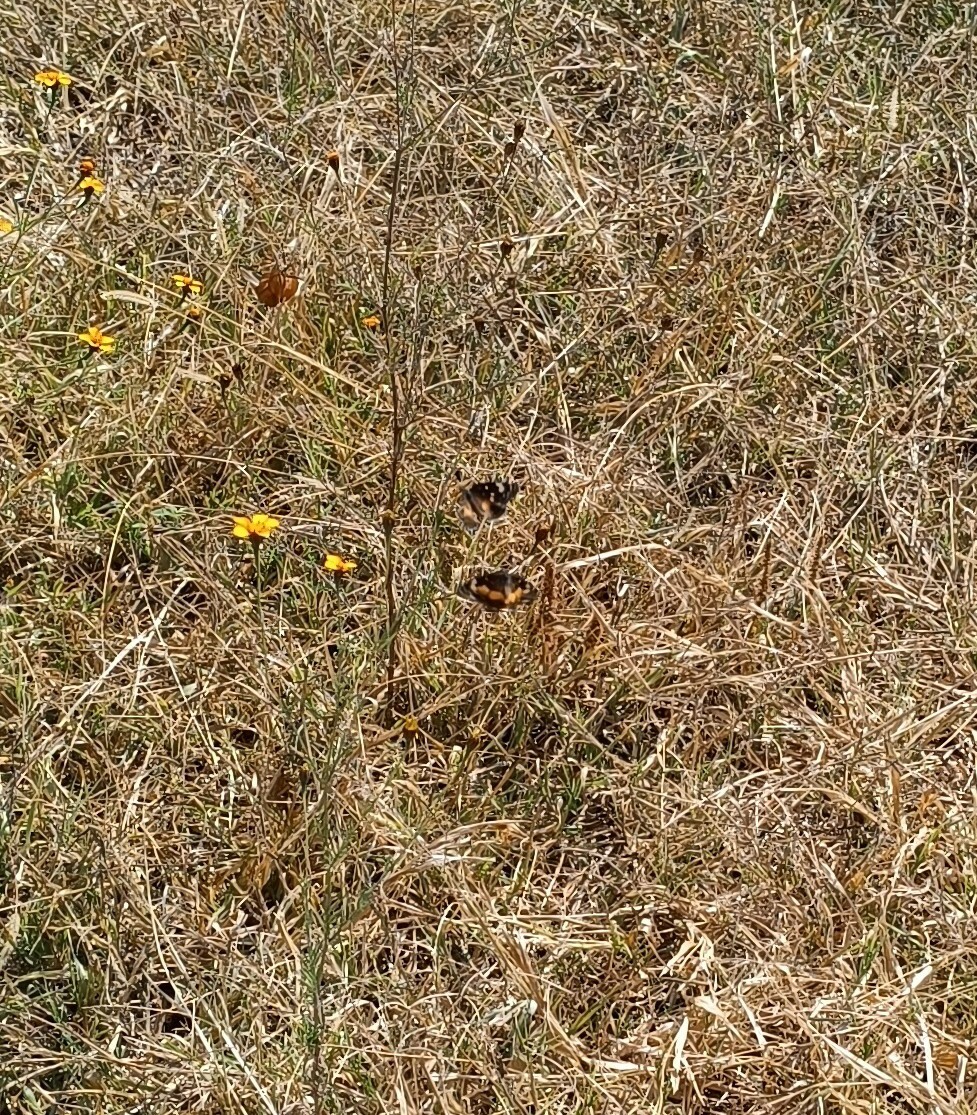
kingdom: Animalia
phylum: Arthropoda
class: Insecta
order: Lepidoptera
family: Nymphalidae
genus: Chlosyne
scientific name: Chlosyne lacinia
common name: Bordered patch
